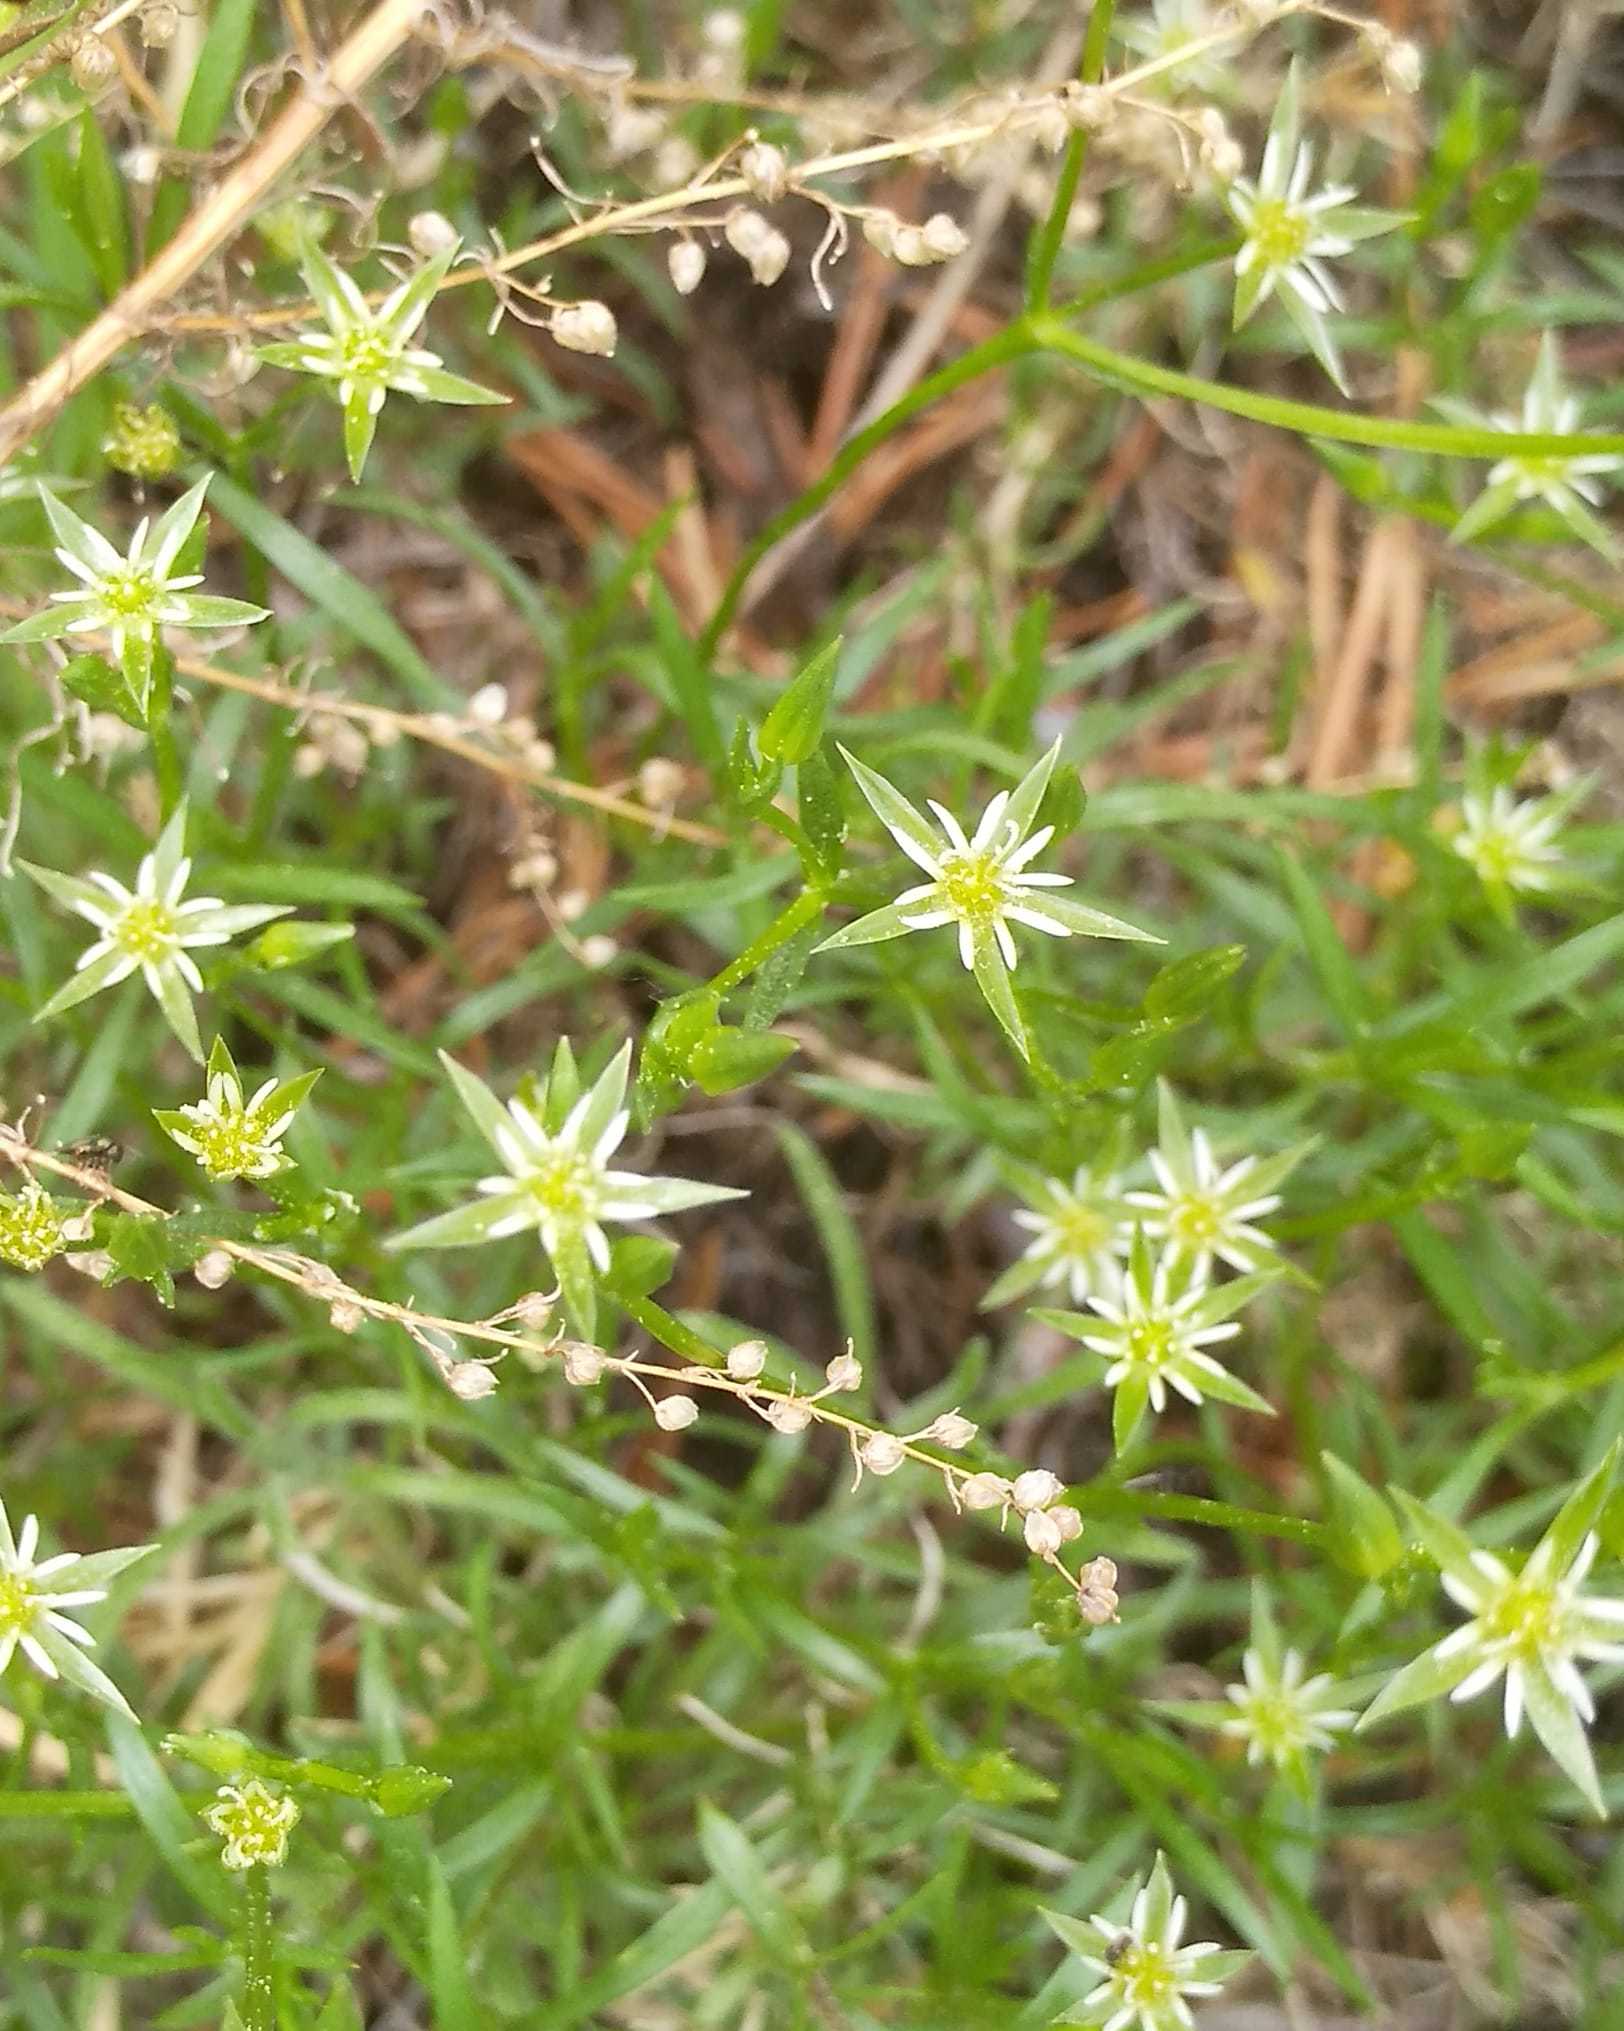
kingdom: Plantae
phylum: Tracheophyta
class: Magnoliopsida
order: Caryophyllales
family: Caryophyllaceae
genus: Adenonema
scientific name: Adenonema cherleriae
